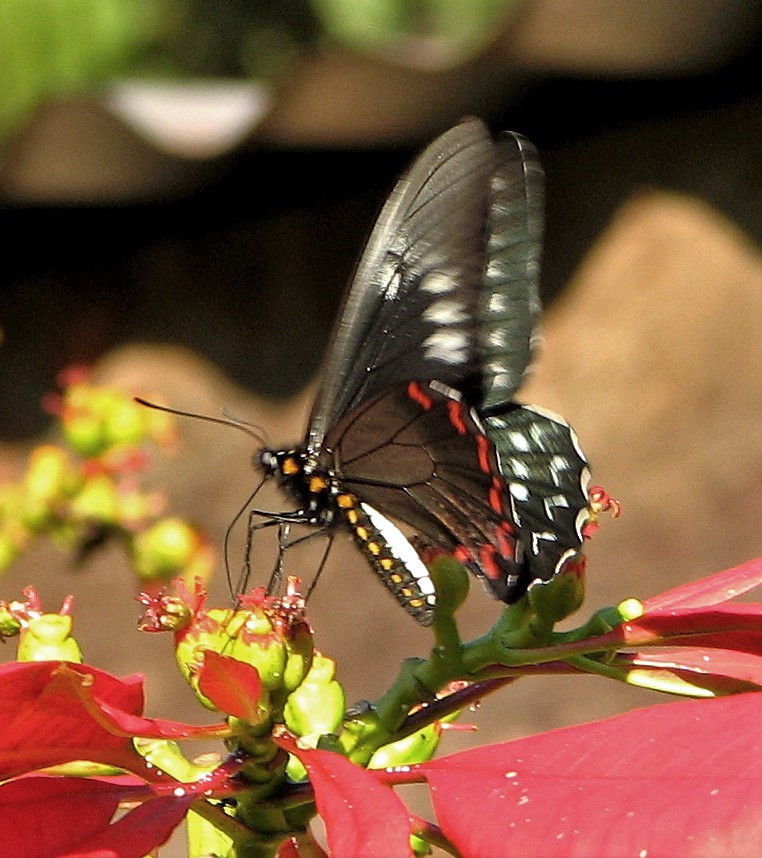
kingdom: Animalia
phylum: Arthropoda
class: Insecta
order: Lepidoptera
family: Papilionidae
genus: Battus
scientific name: Battus polystictus
